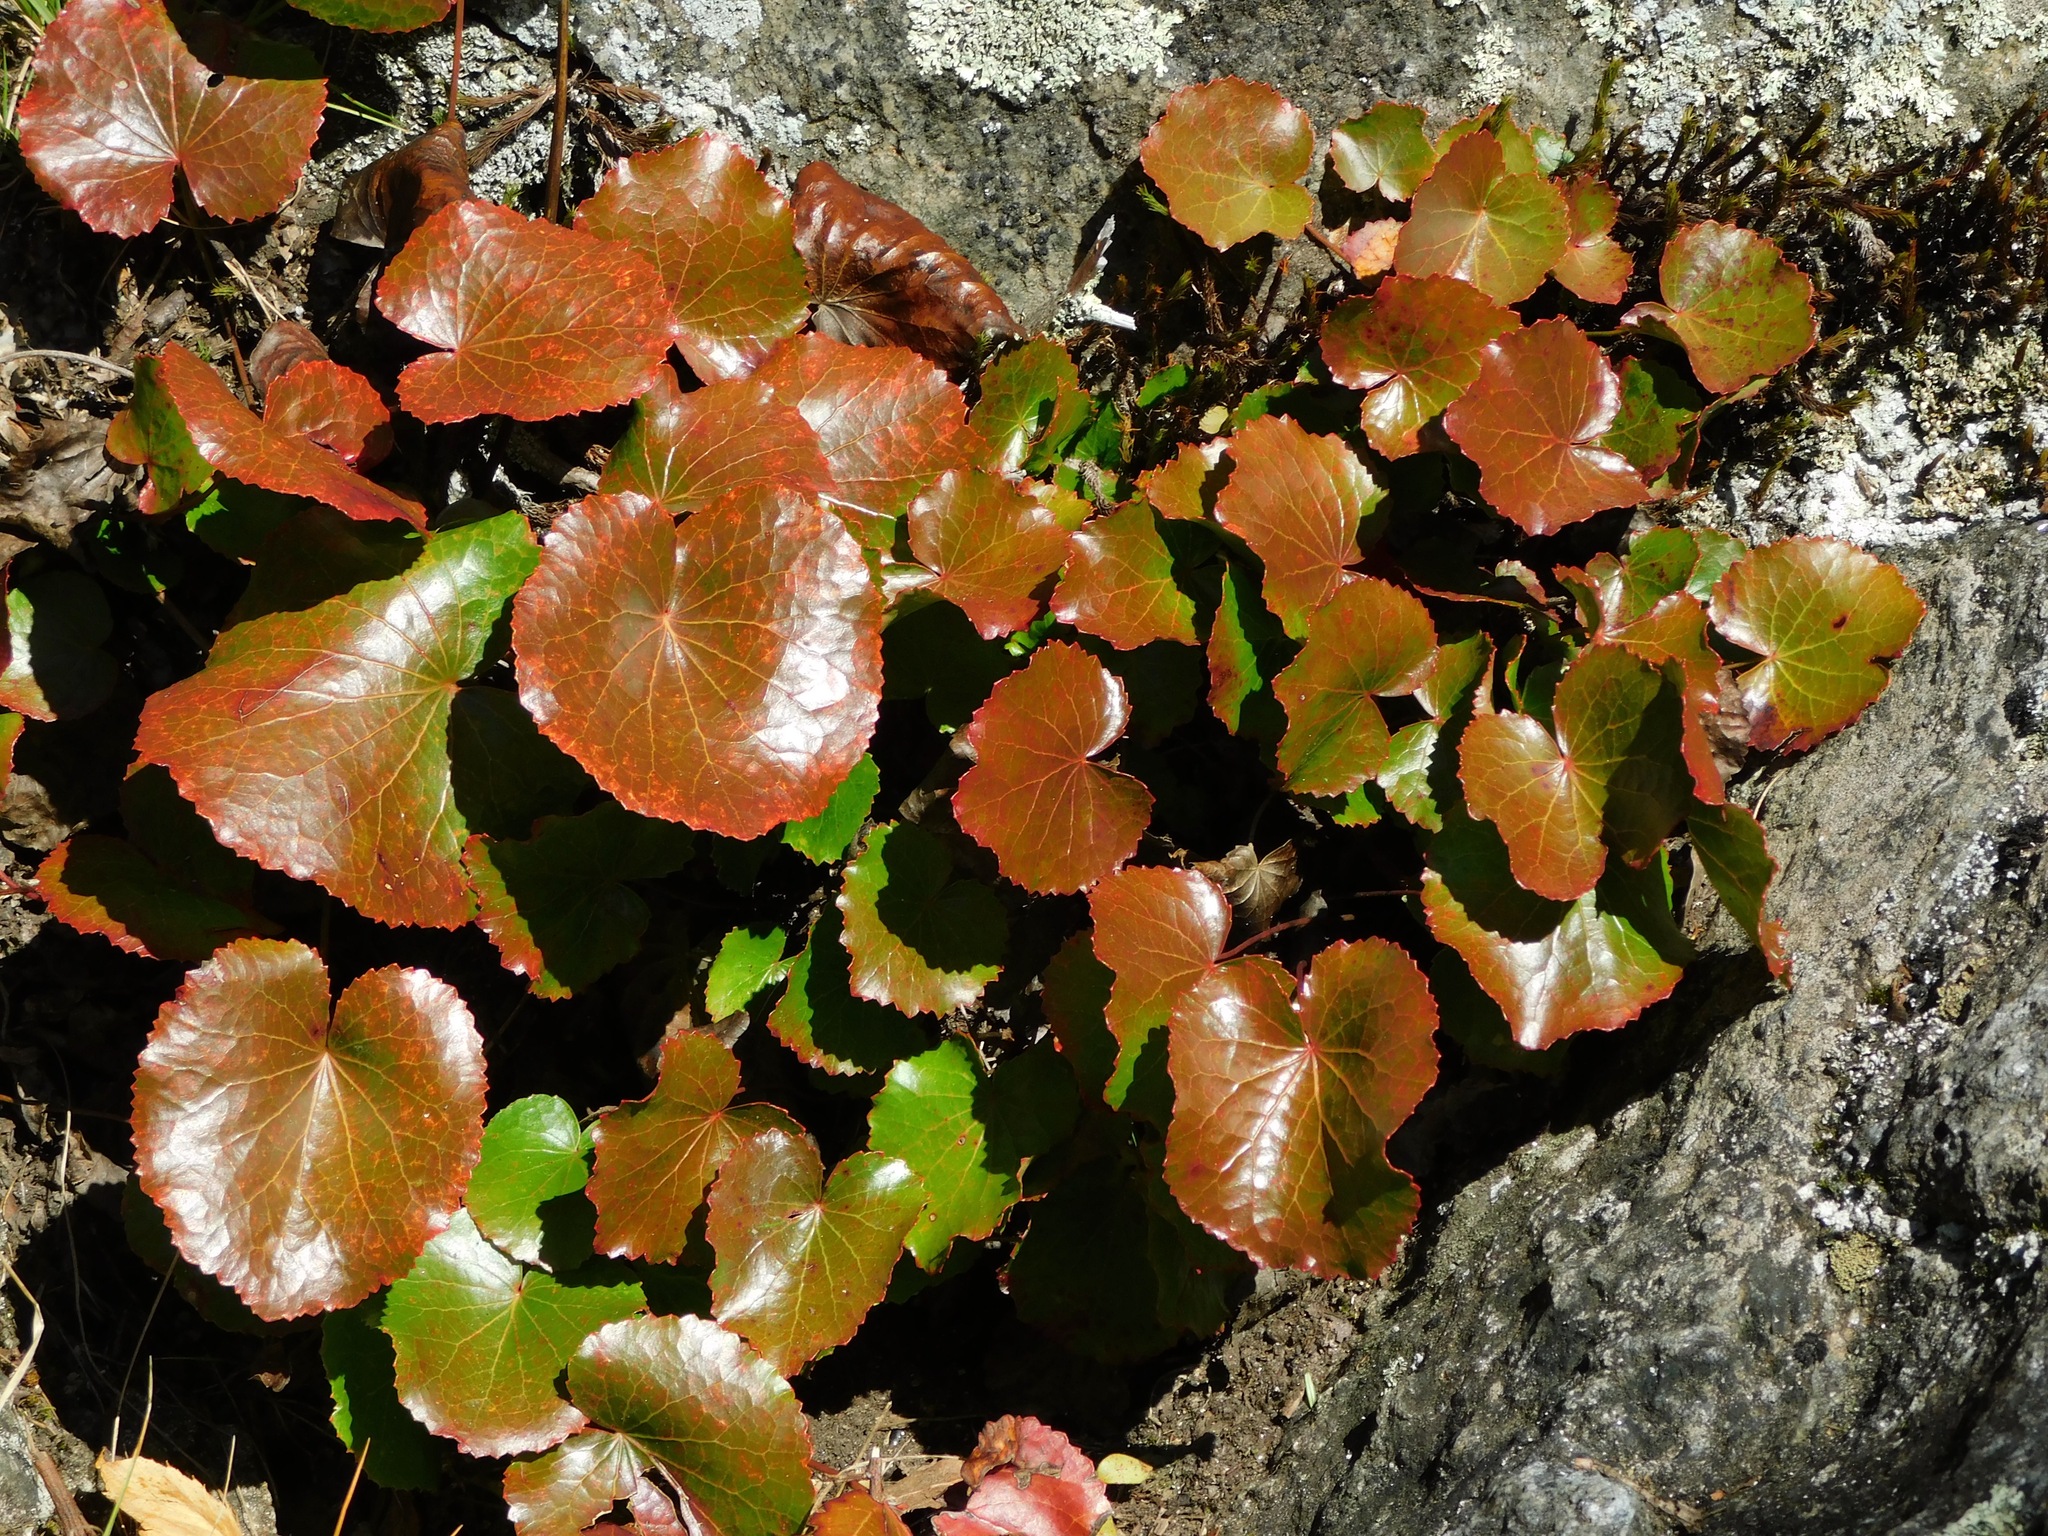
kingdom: Plantae
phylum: Tracheophyta
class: Magnoliopsida
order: Ericales
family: Diapensiaceae
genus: Galax
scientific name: Galax urceolata
